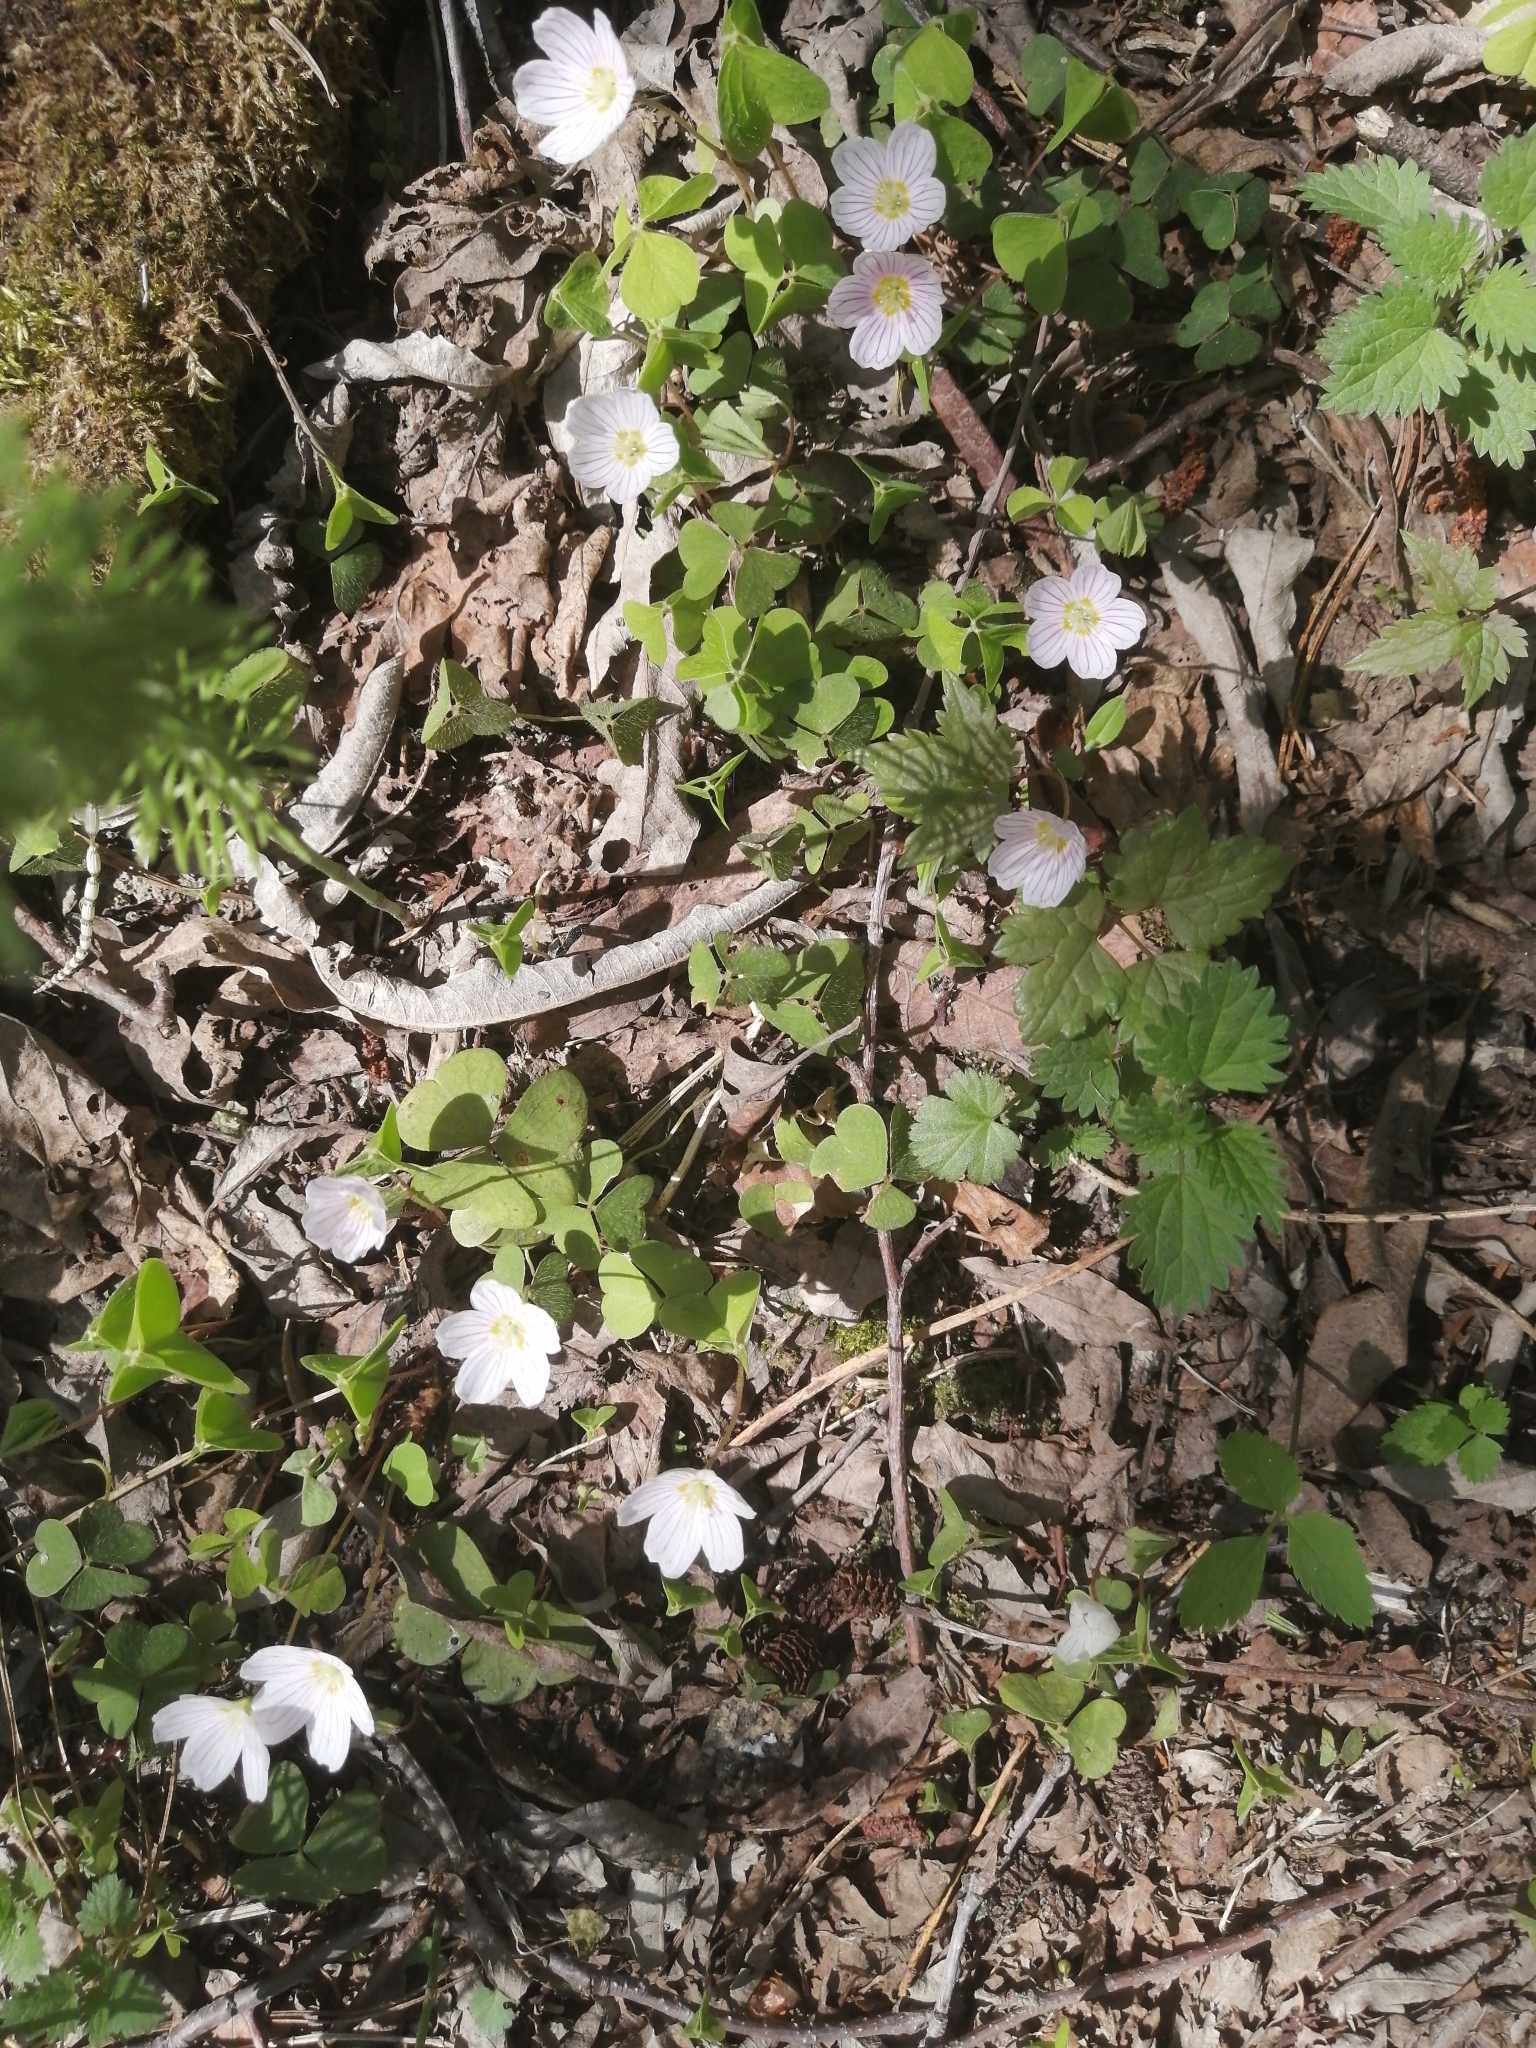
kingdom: Plantae
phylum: Tracheophyta
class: Magnoliopsida
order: Oxalidales
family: Oxalidaceae
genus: Oxalis
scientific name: Oxalis acetosella
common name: Wood-sorrel
